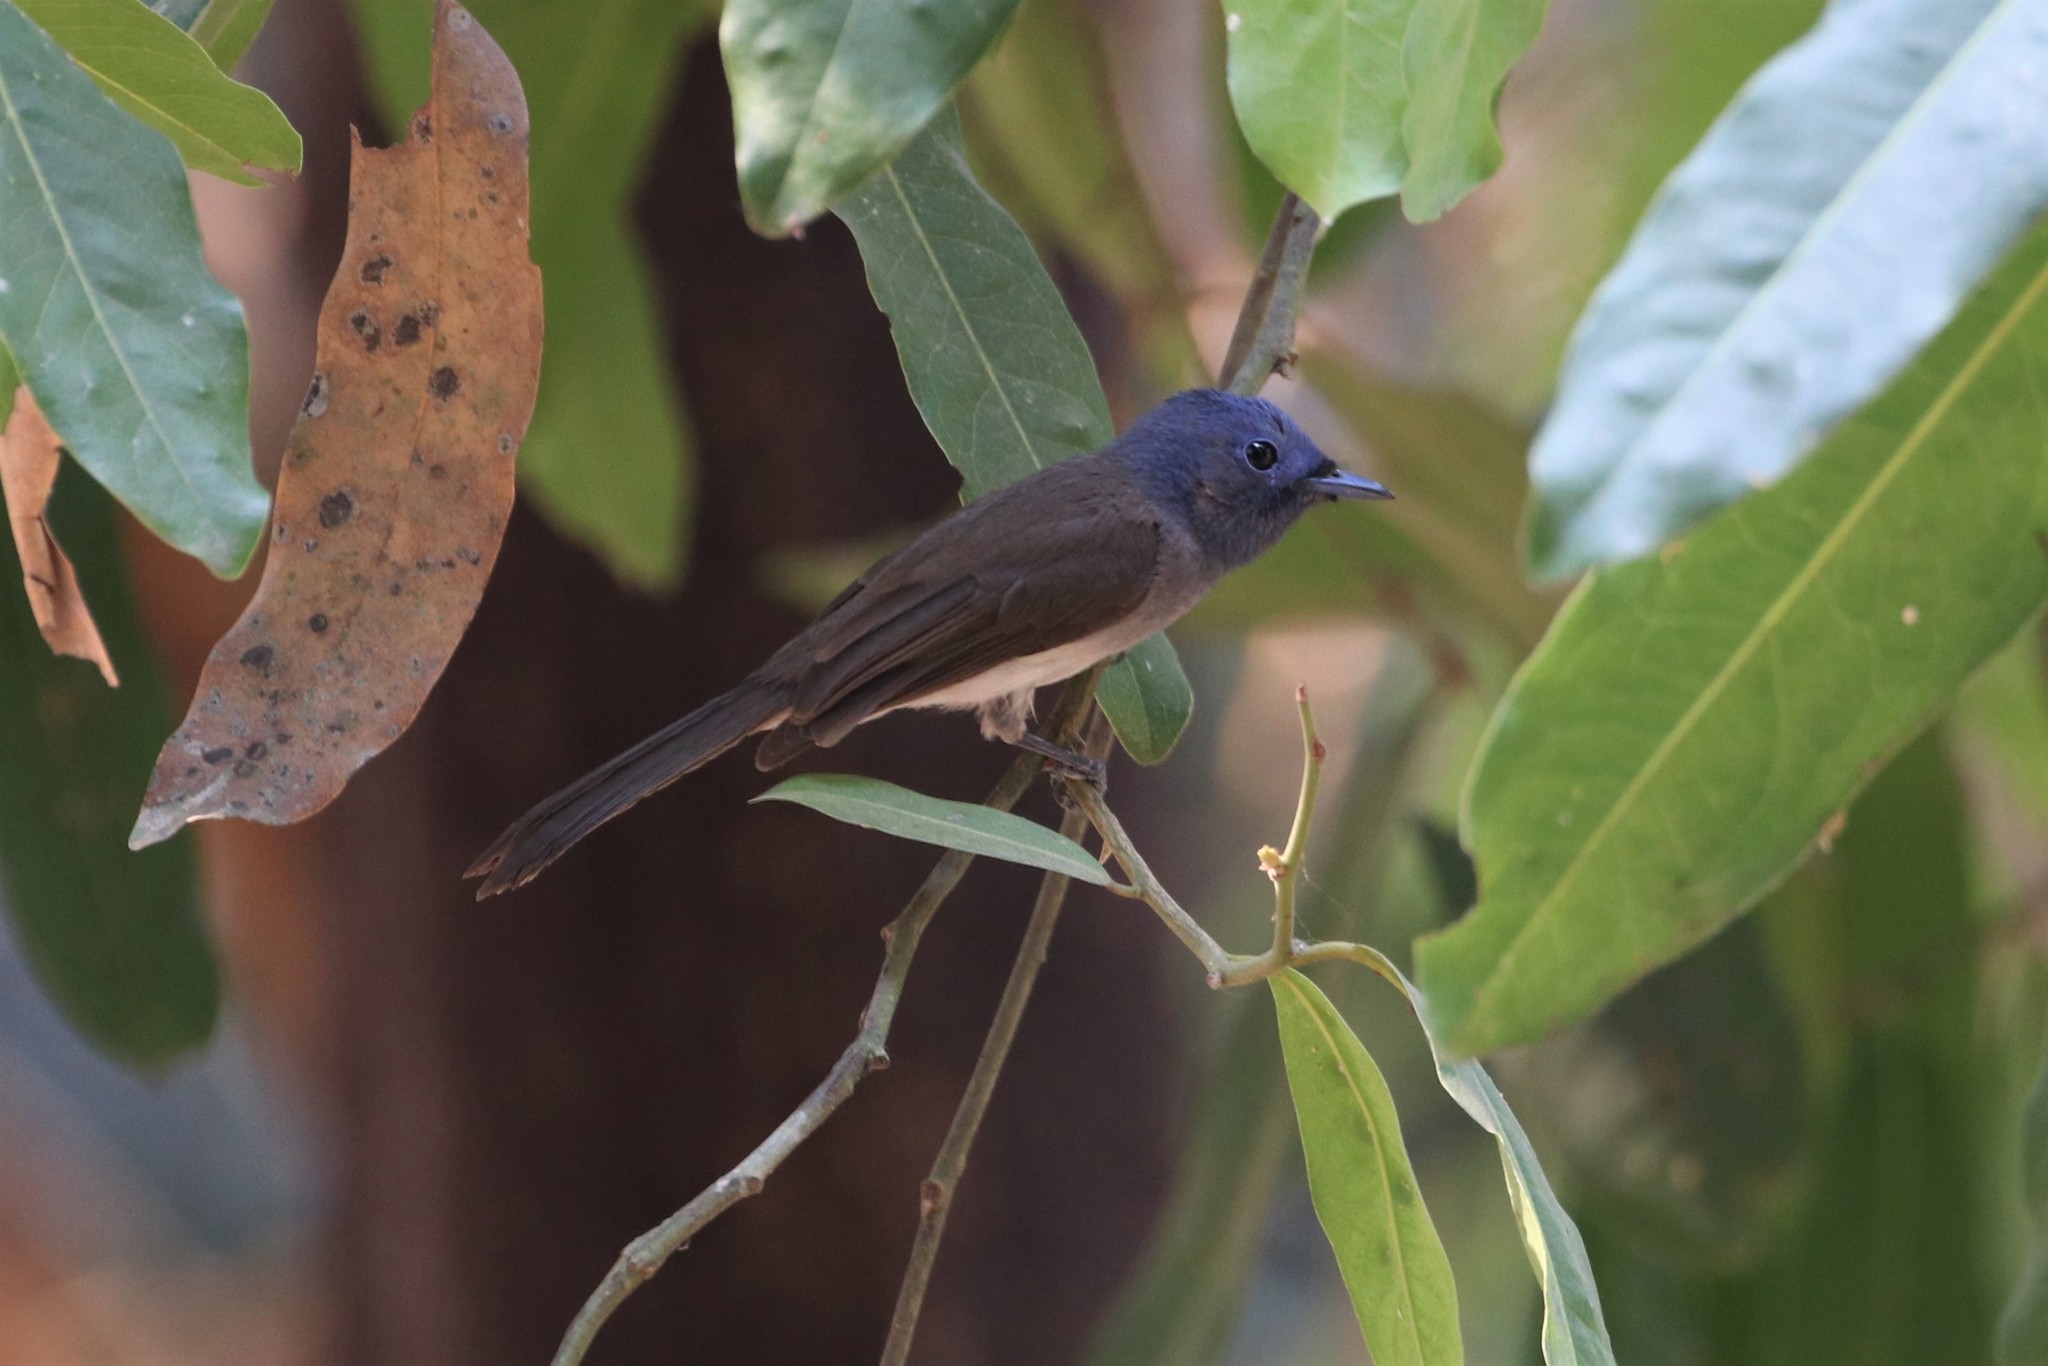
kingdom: Animalia
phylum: Chordata
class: Aves
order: Passeriformes
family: Monarchidae
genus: Hypothymis
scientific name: Hypothymis azurea
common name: Black-naped monarch
